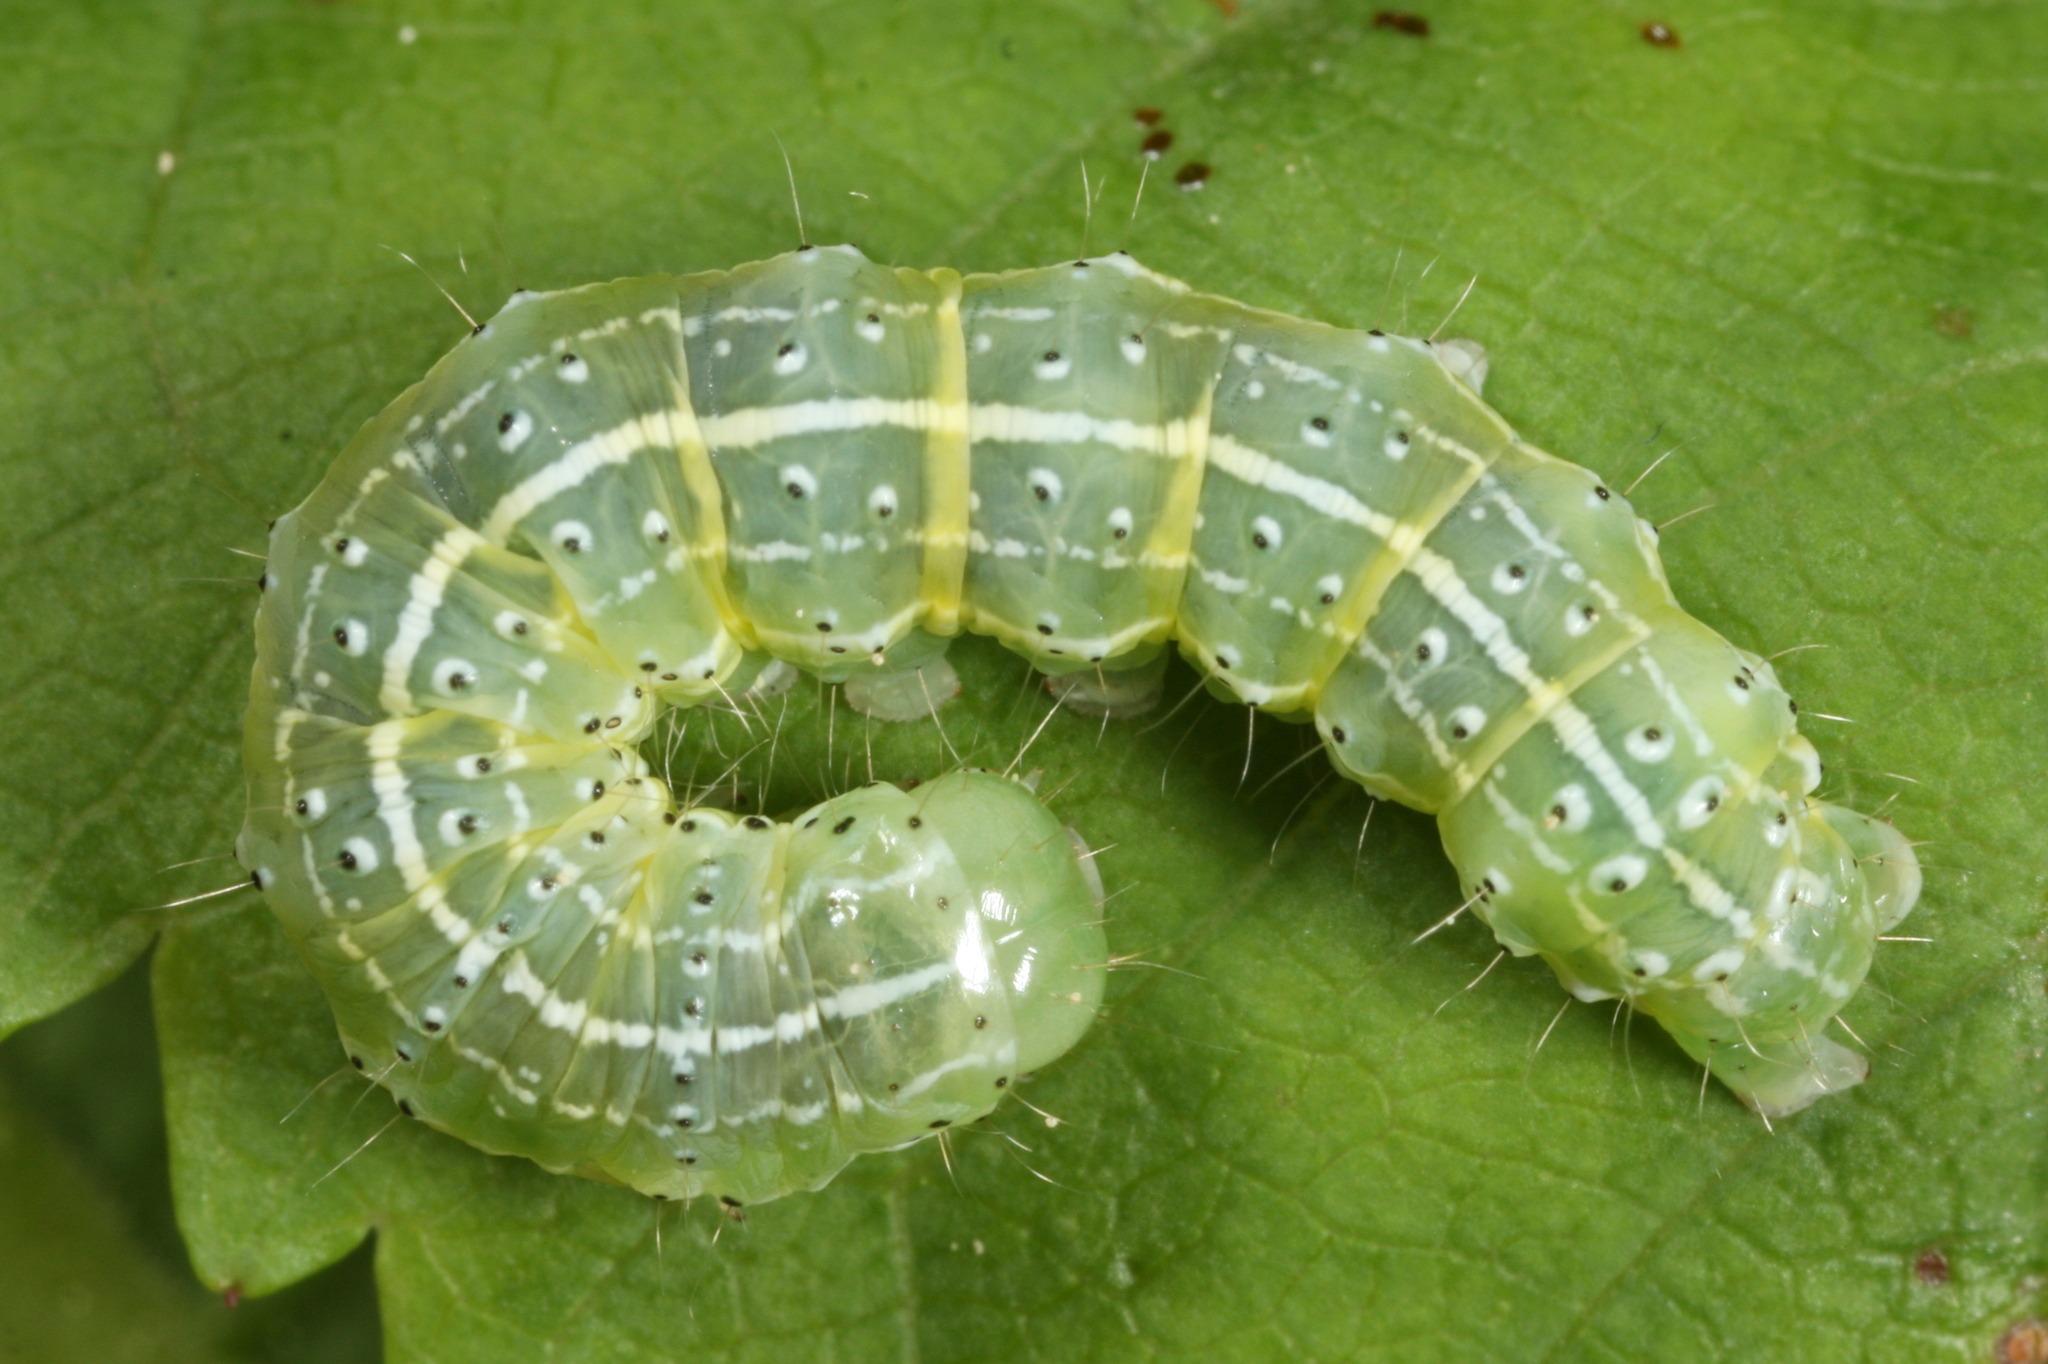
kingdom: Animalia
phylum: Arthropoda
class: Insecta
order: Lepidoptera
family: Noctuidae
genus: Cosmia
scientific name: Cosmia trapezina
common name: Dun-bar
